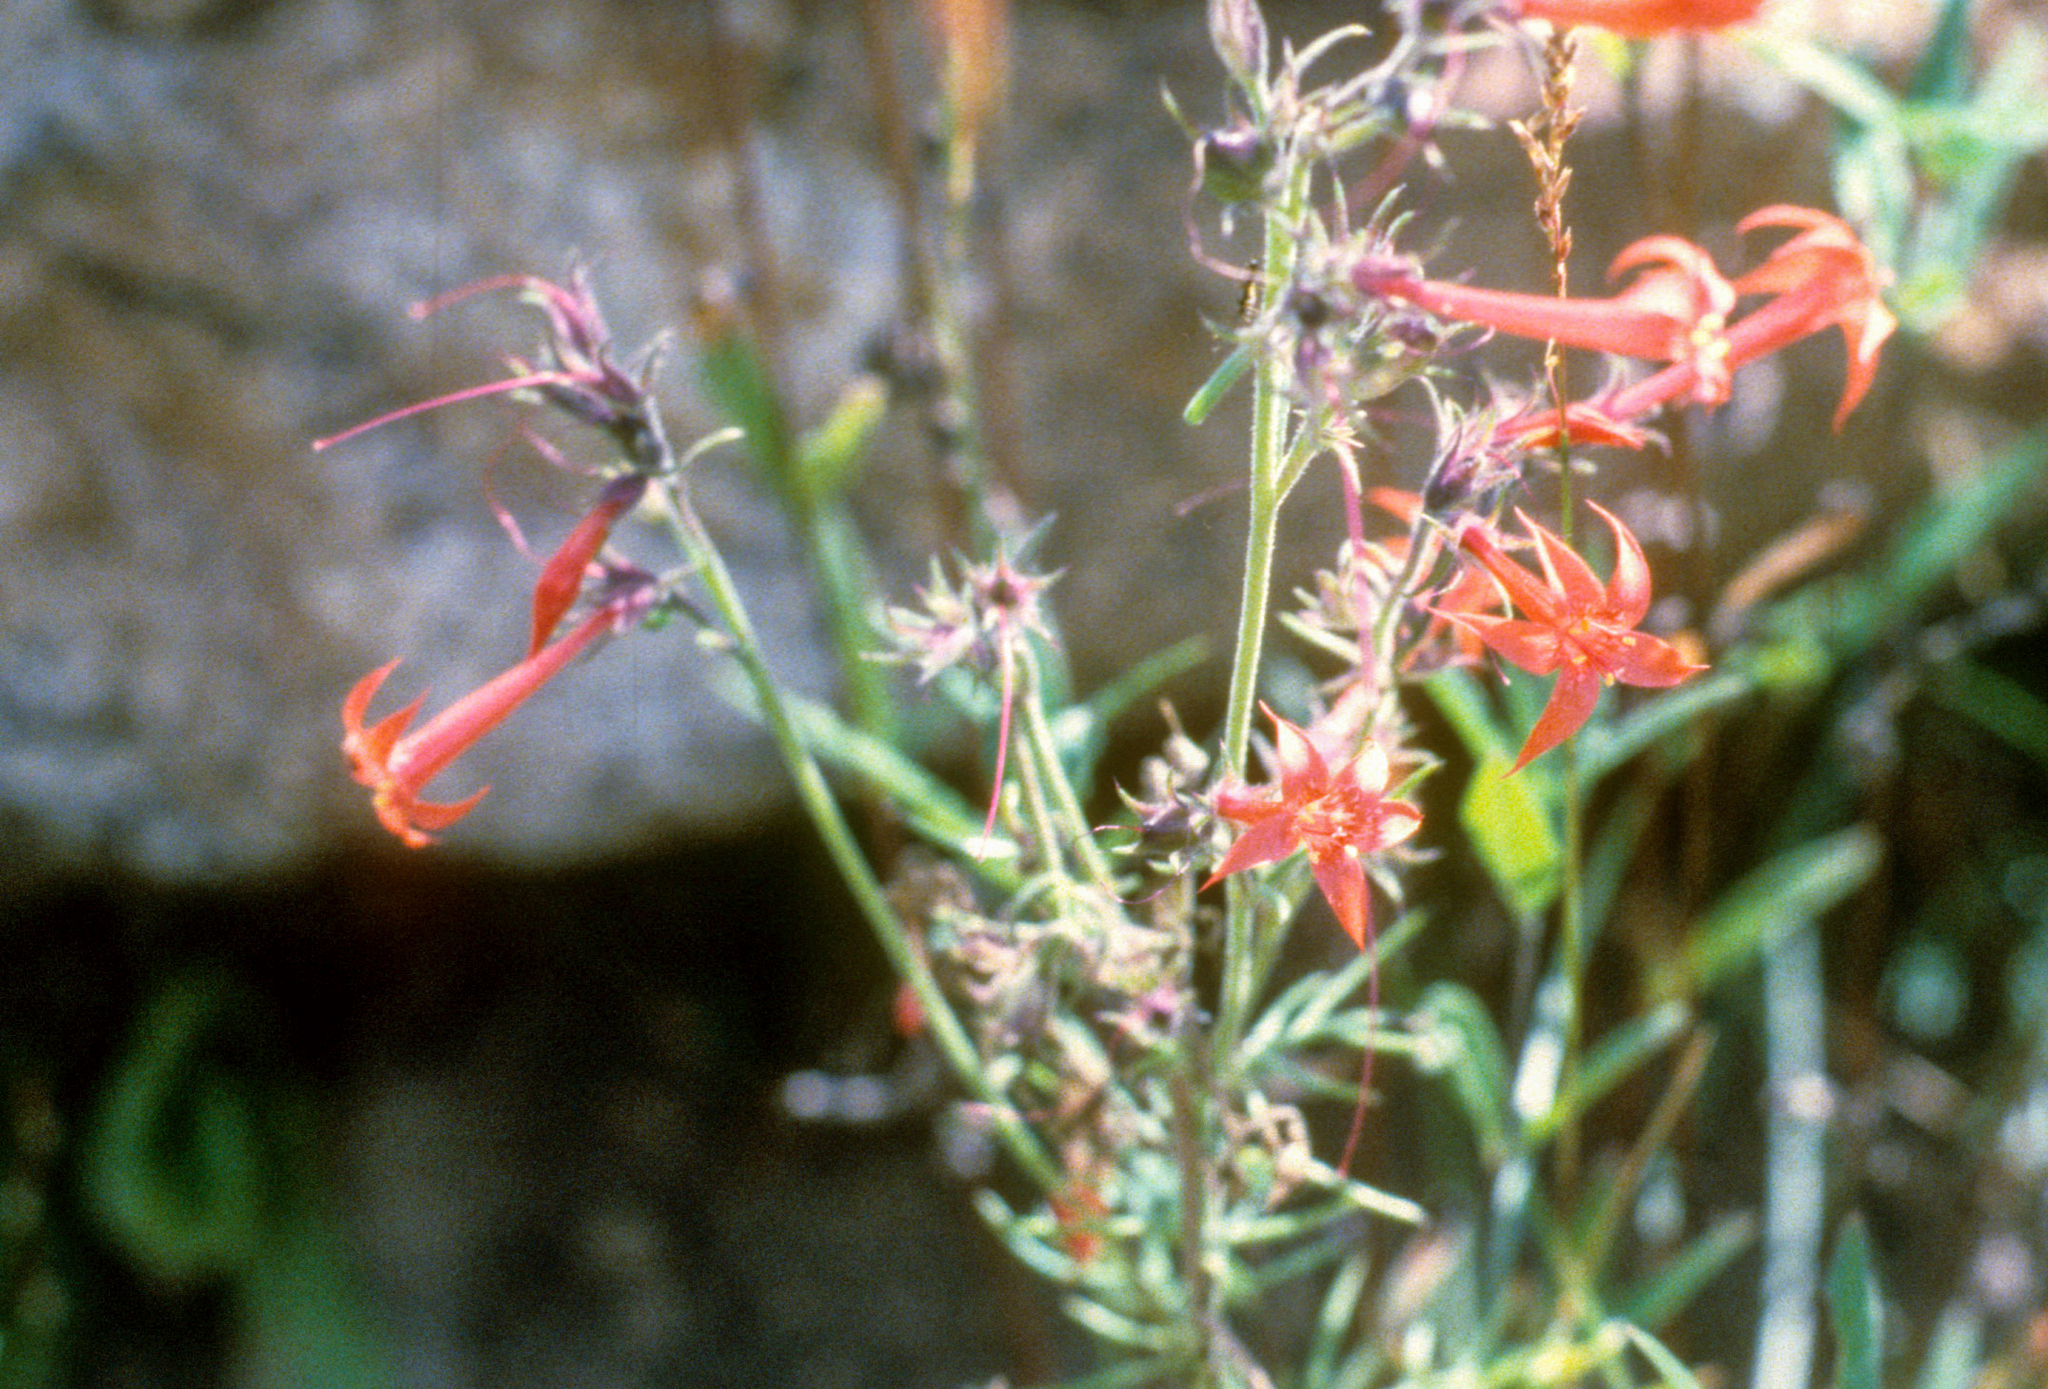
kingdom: Plantae
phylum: Tracheophyta
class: Magnoliopsida
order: Ericales
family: Polemoniaceae
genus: Ipomopsis
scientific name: Ipomopsis aggregata
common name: Scarlet gilia
